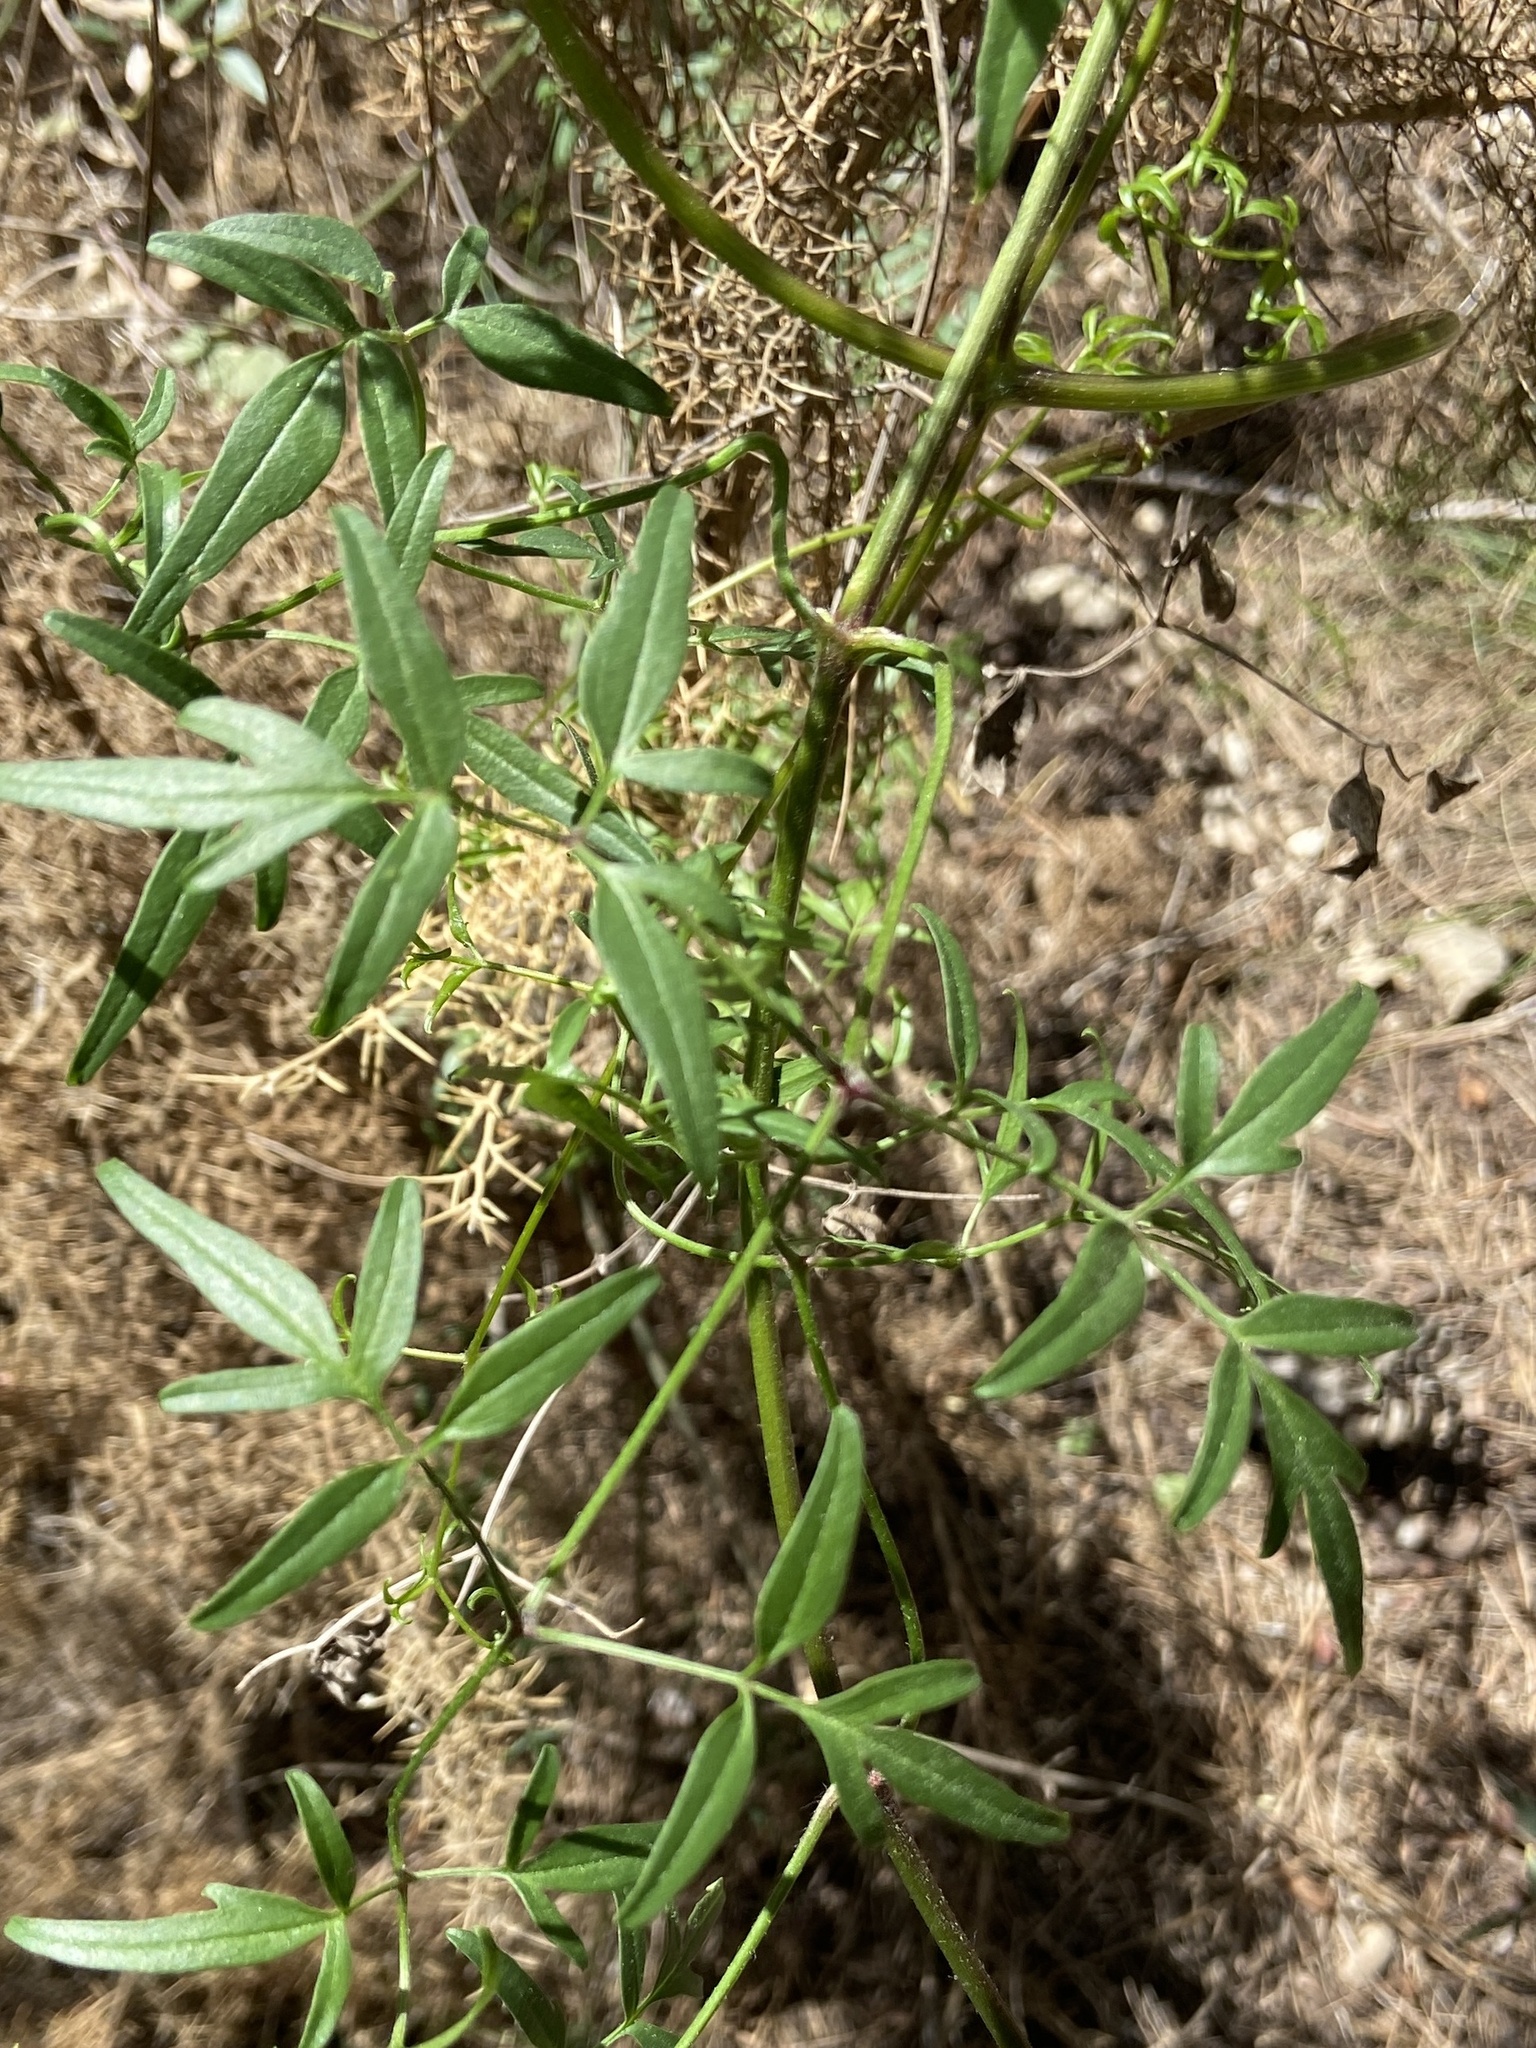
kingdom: Plantae
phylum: Tracheophyta
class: Magnoliopsida
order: Ranunculales
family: Ranunculaceae
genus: Clematis
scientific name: Clematis flammula
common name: Virgin's-bower
